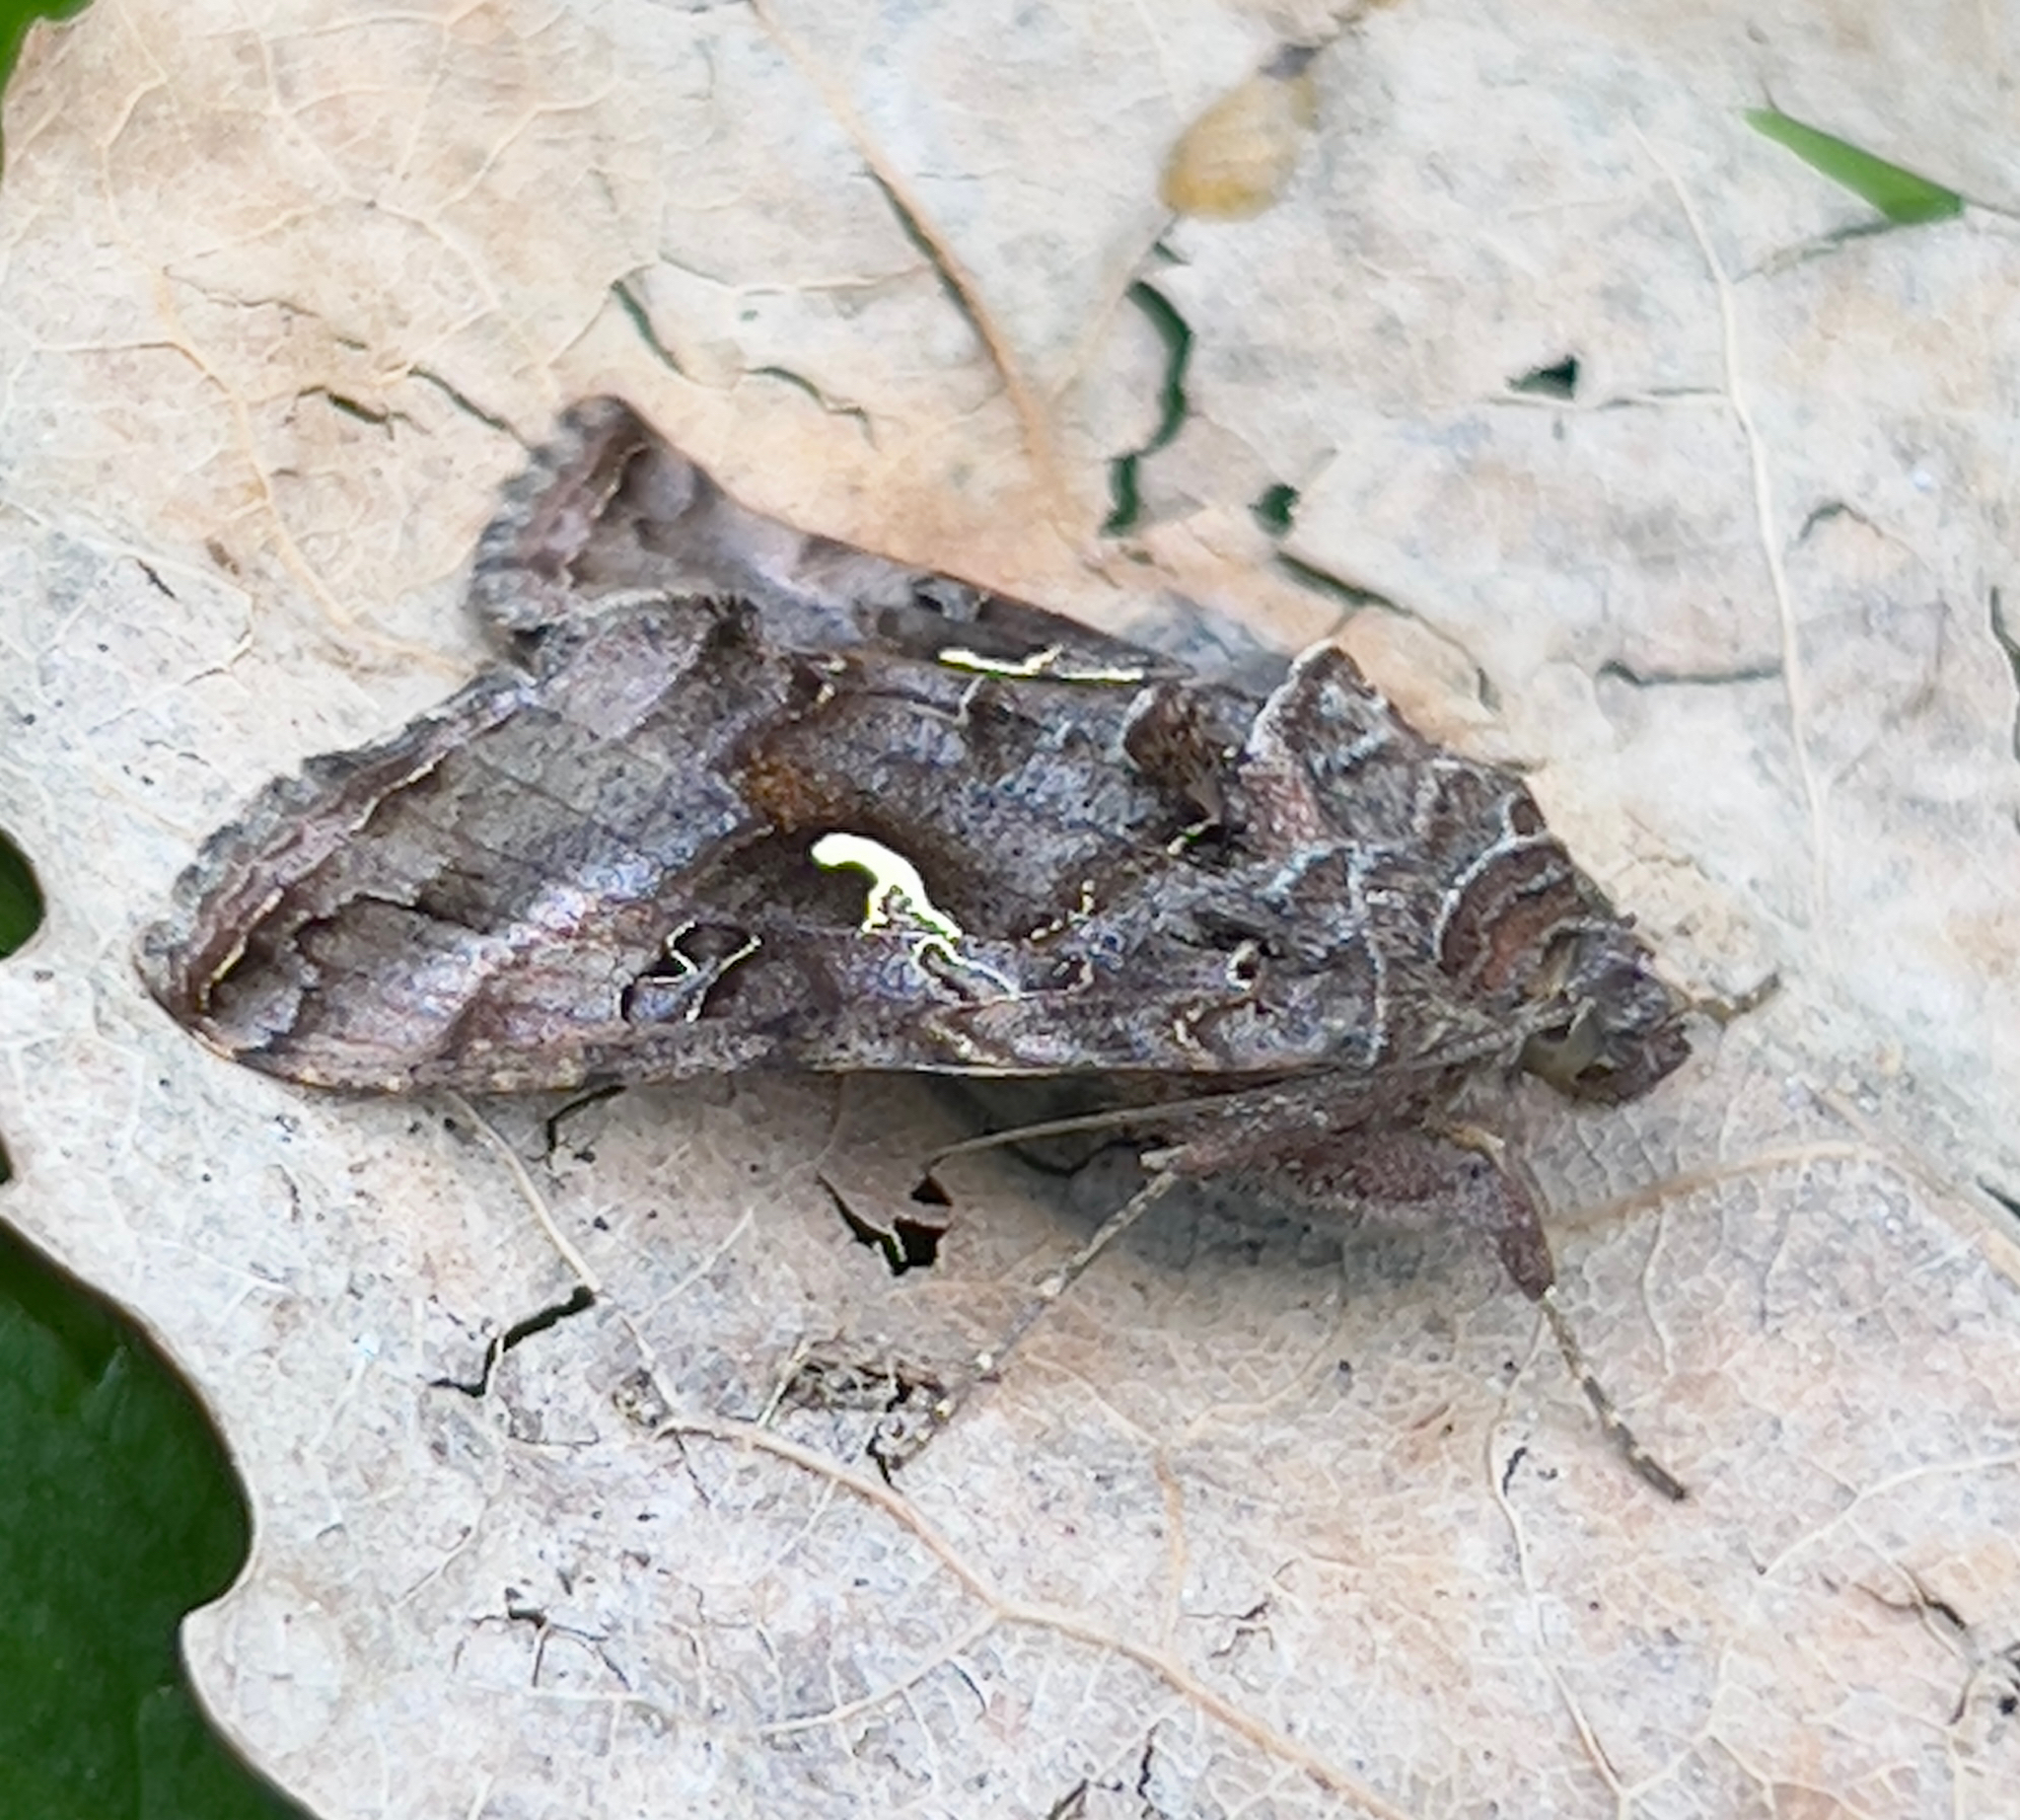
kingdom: Animalia
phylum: Arthropoda
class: Insecta
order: Lepidoptera
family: Noctuidae
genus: Autographa
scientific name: Autographa gamma
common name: Silver y
